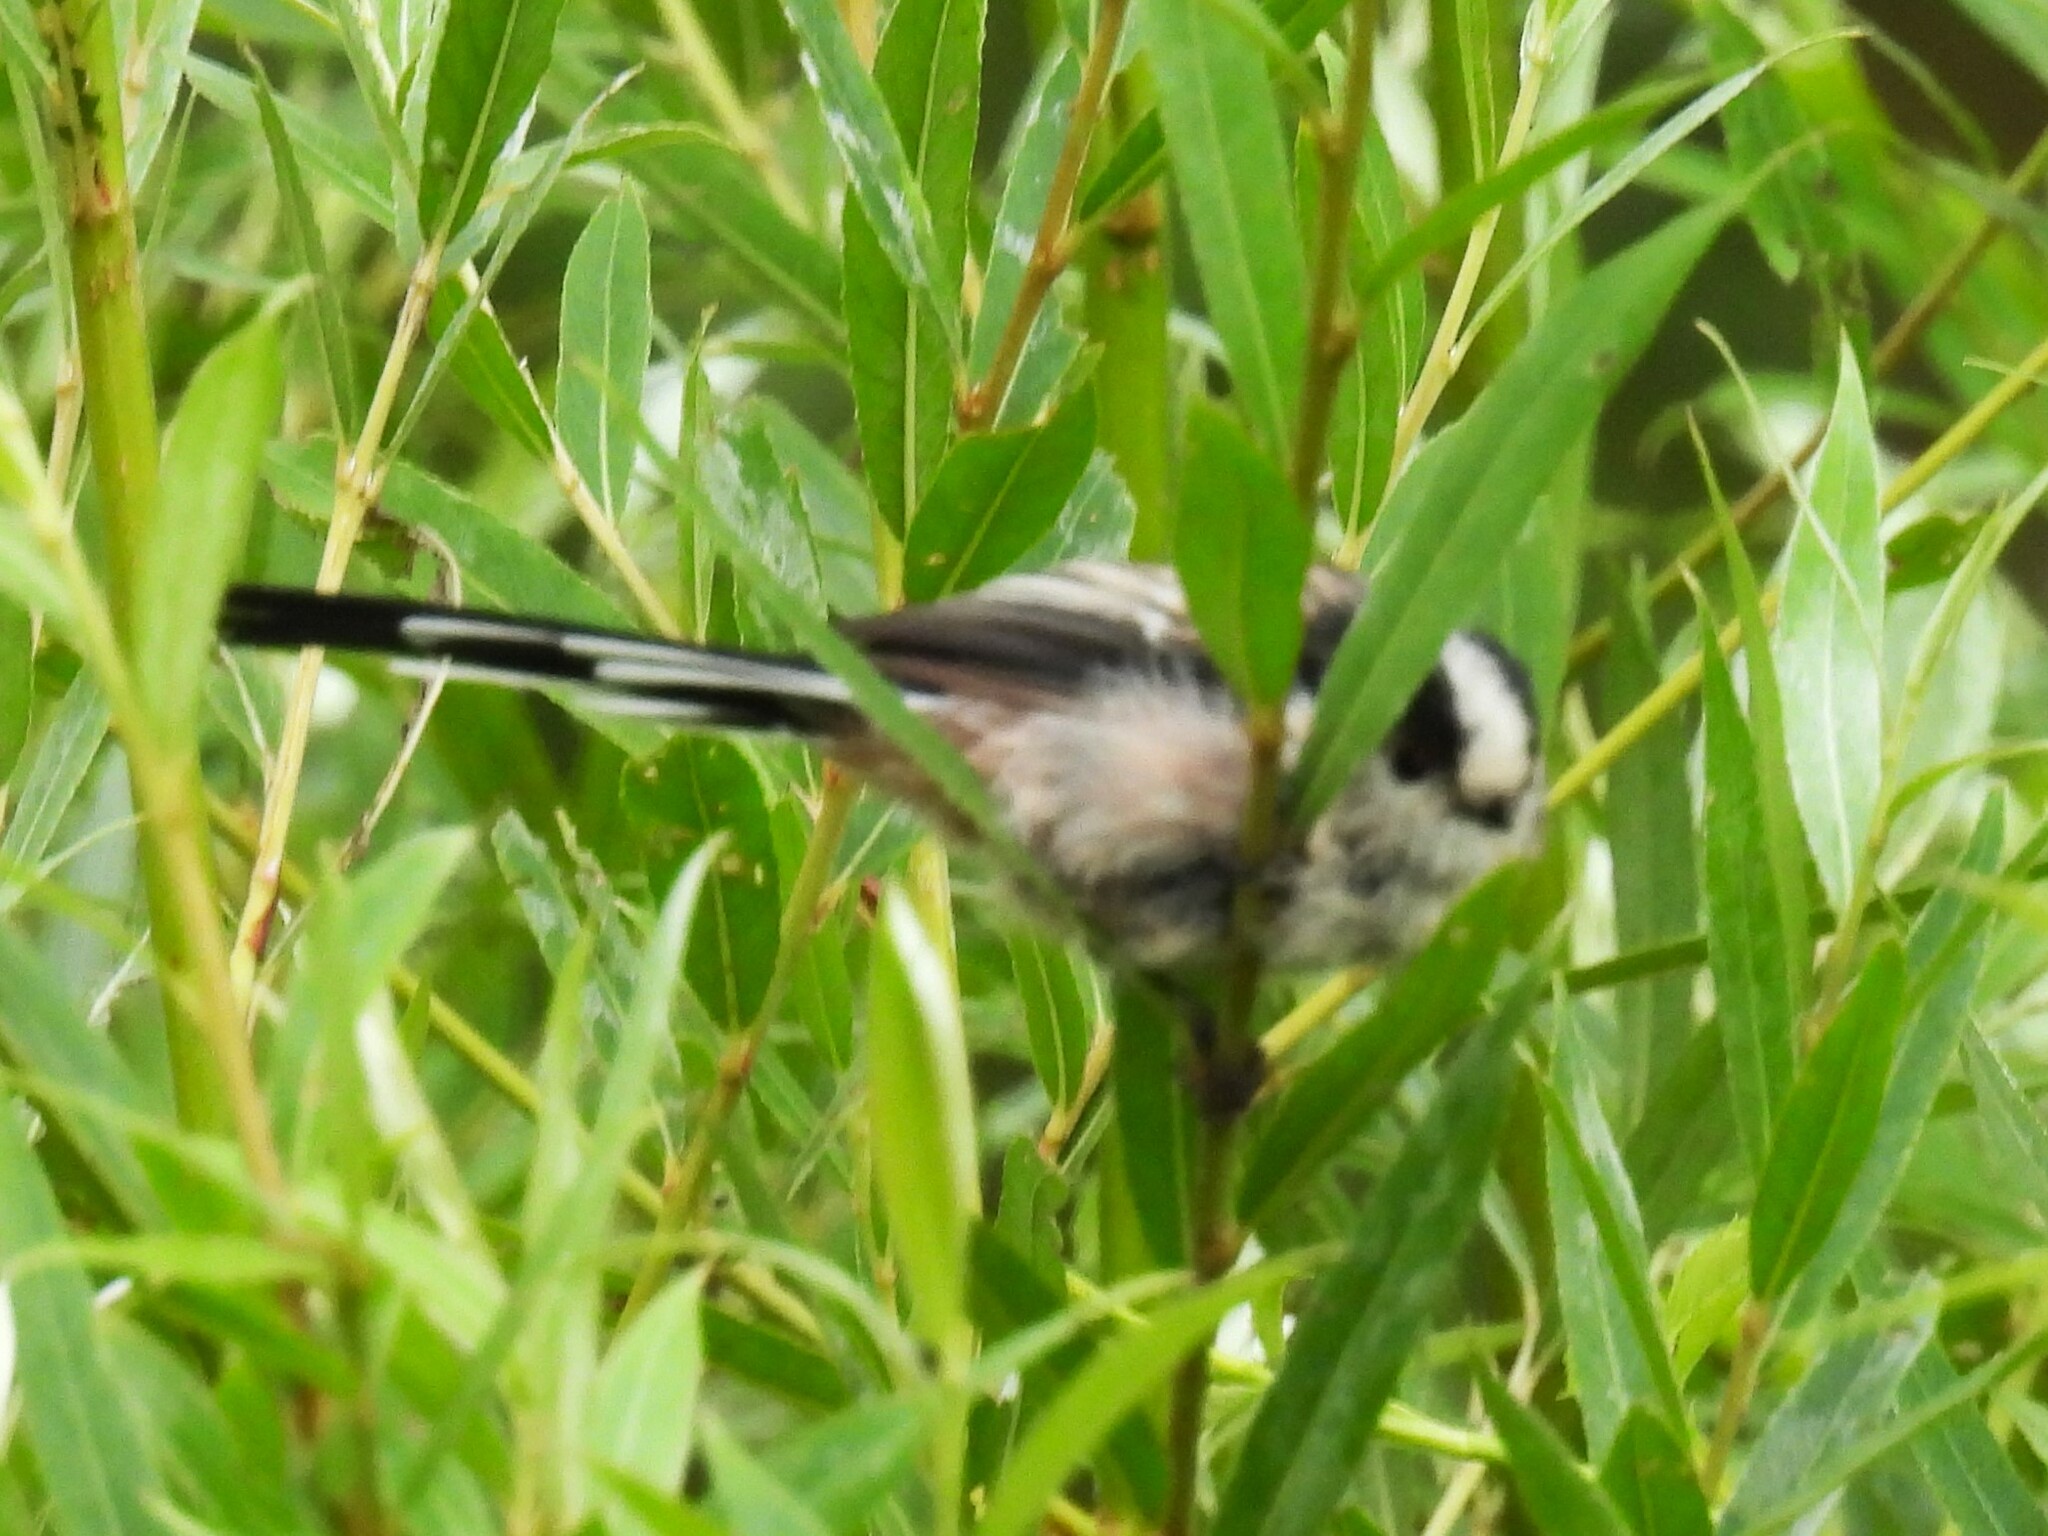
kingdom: Animalia
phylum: Chordata
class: Aves
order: Passeriformes
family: Aegithalidae
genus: Aegithalos
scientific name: Aegithalos caudatus
